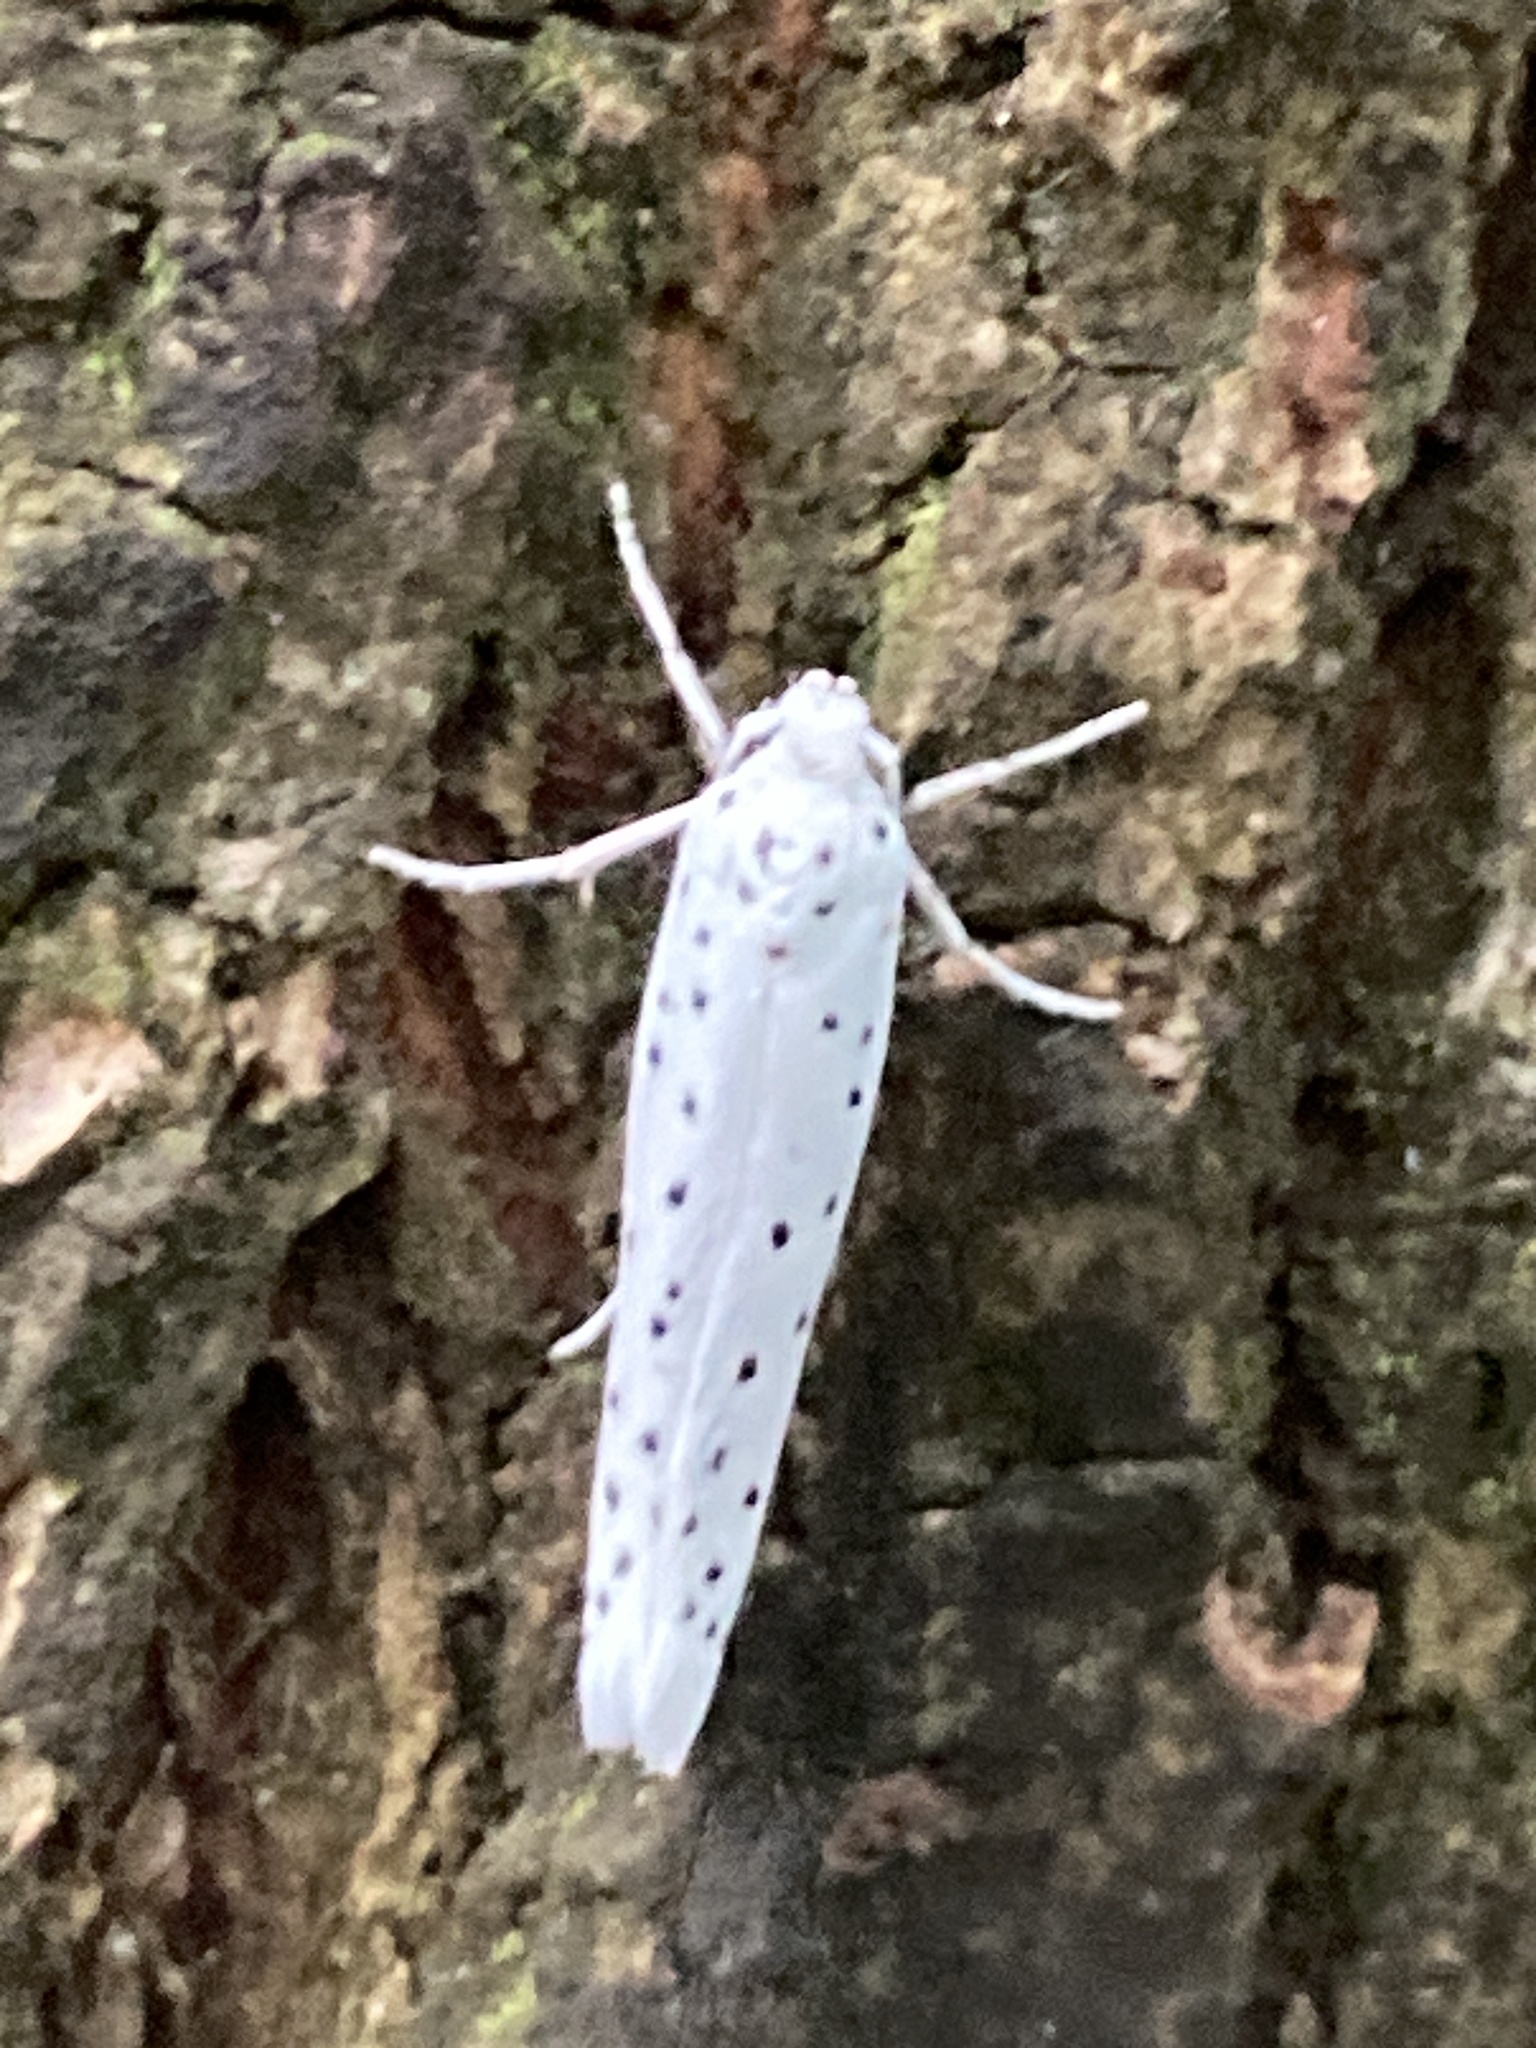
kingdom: Animalia
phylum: Arthropoda
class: Insecta
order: Lepidoptera
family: Yponomeutidae
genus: Yponomeuta
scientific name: Yponomeuta
